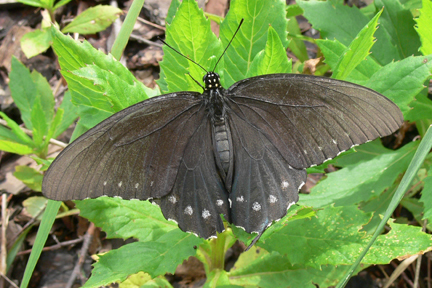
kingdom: Animalia
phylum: Arthropoda
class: Insecta
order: Lepidoptera
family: Papilionidae
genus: Battus
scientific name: Battus philenor
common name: Pipevine swallowtail
